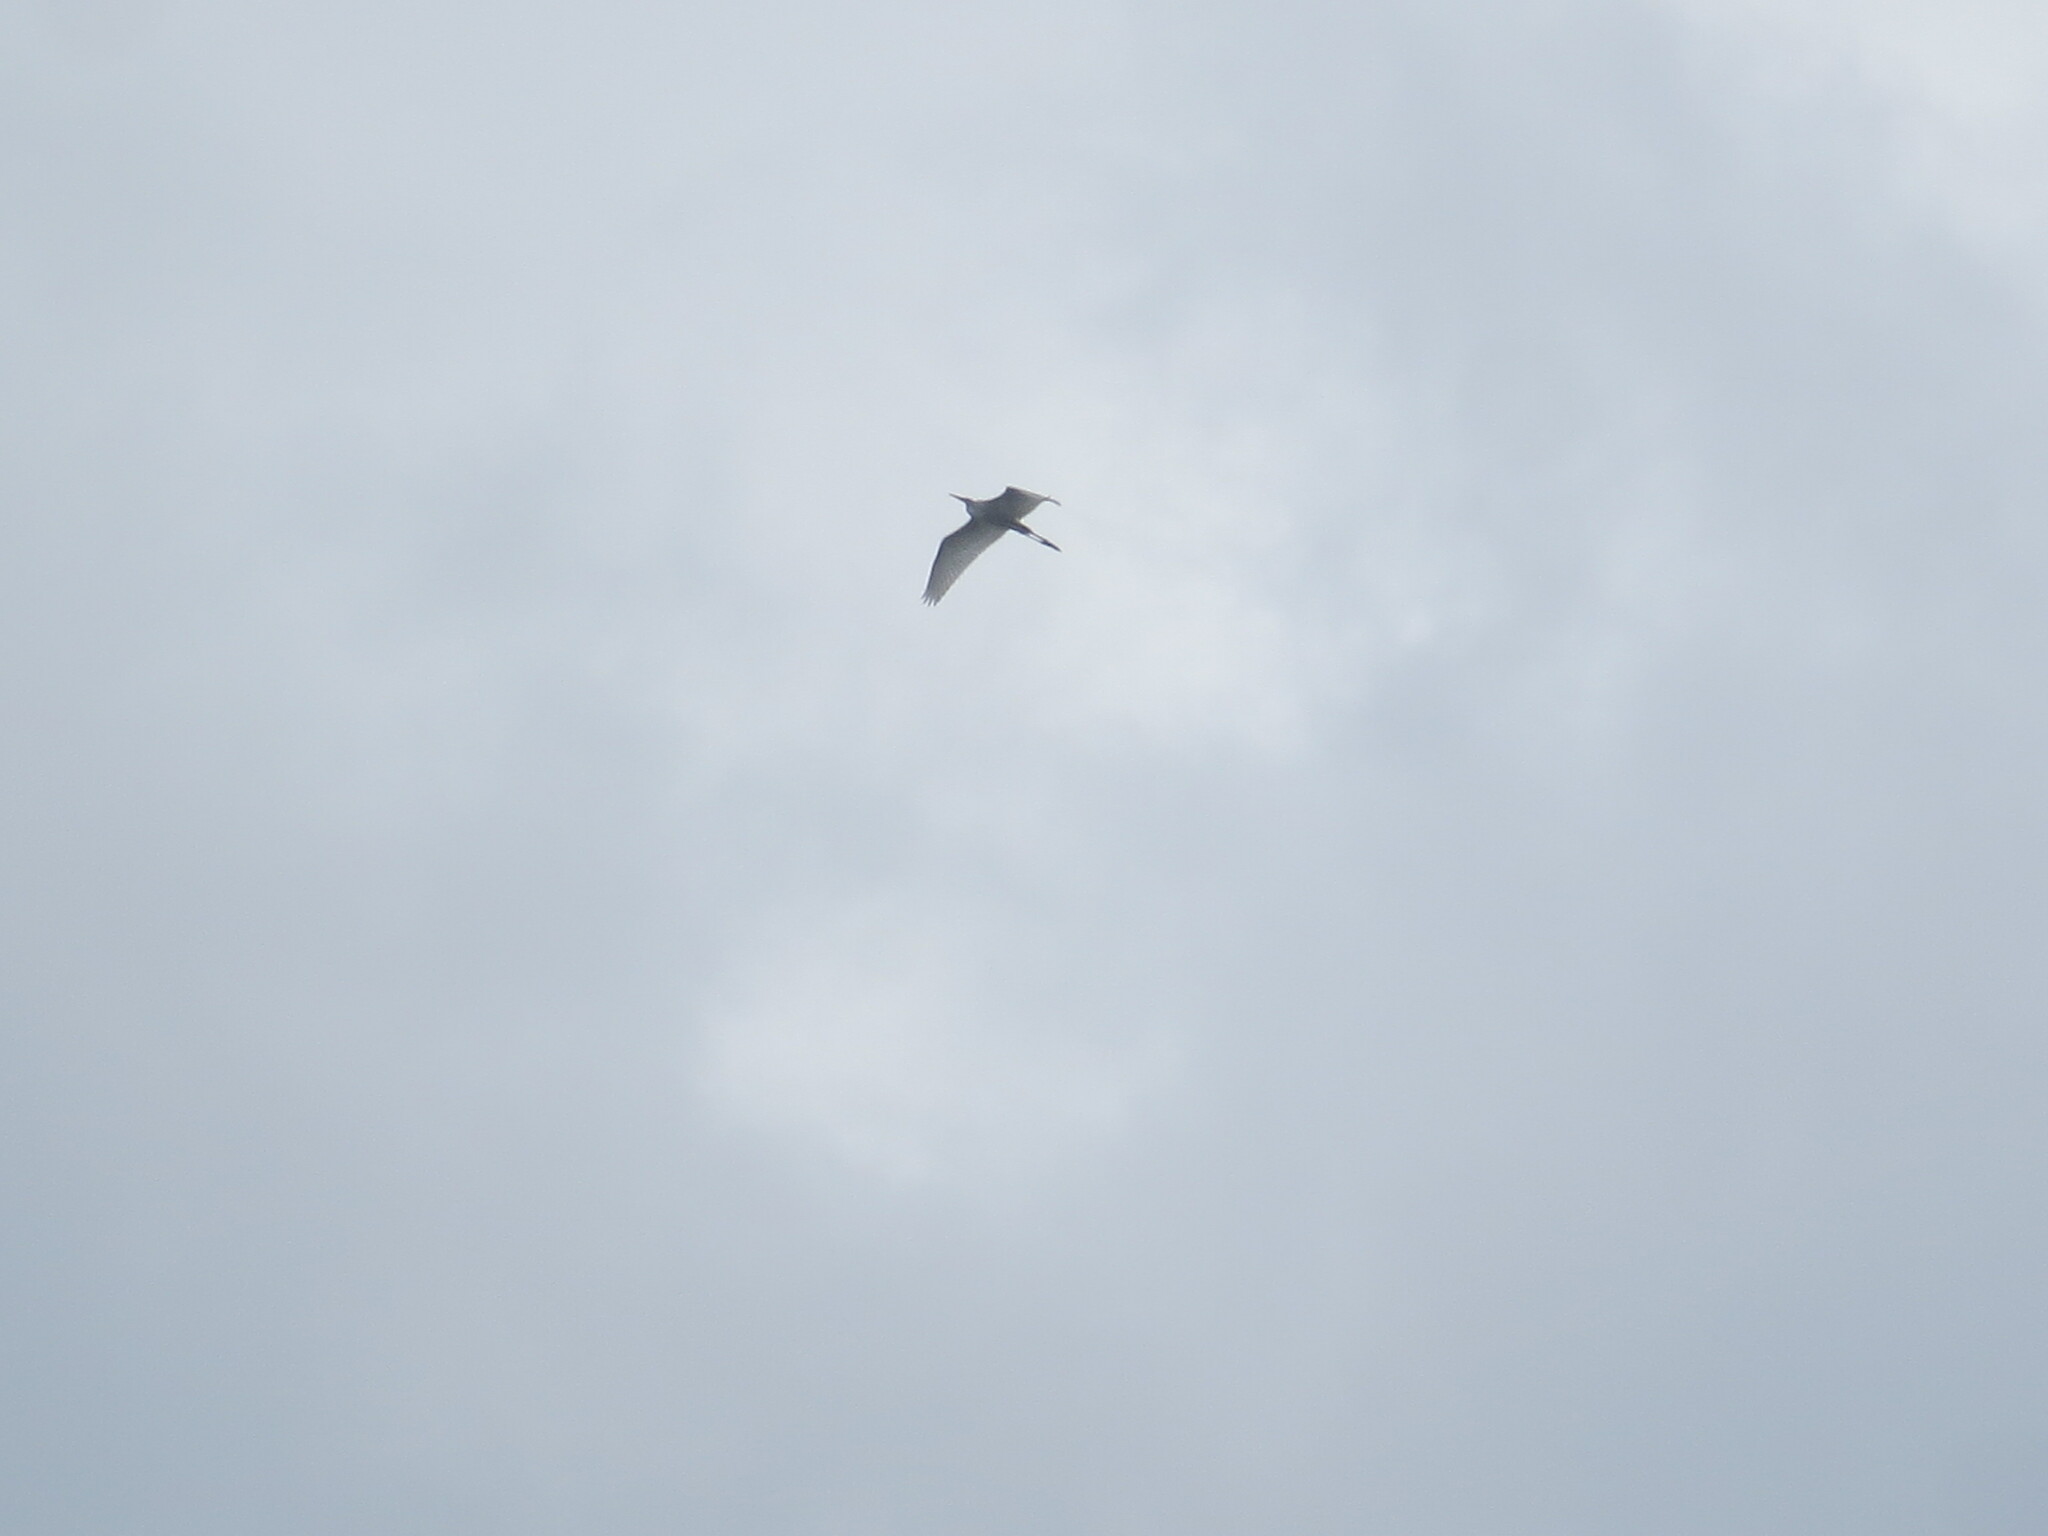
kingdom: Animalia
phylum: Chordata
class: Aves
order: Pelecaniformes
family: Ardeidae
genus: Ardea
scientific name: Ardea alba
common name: Great egret
